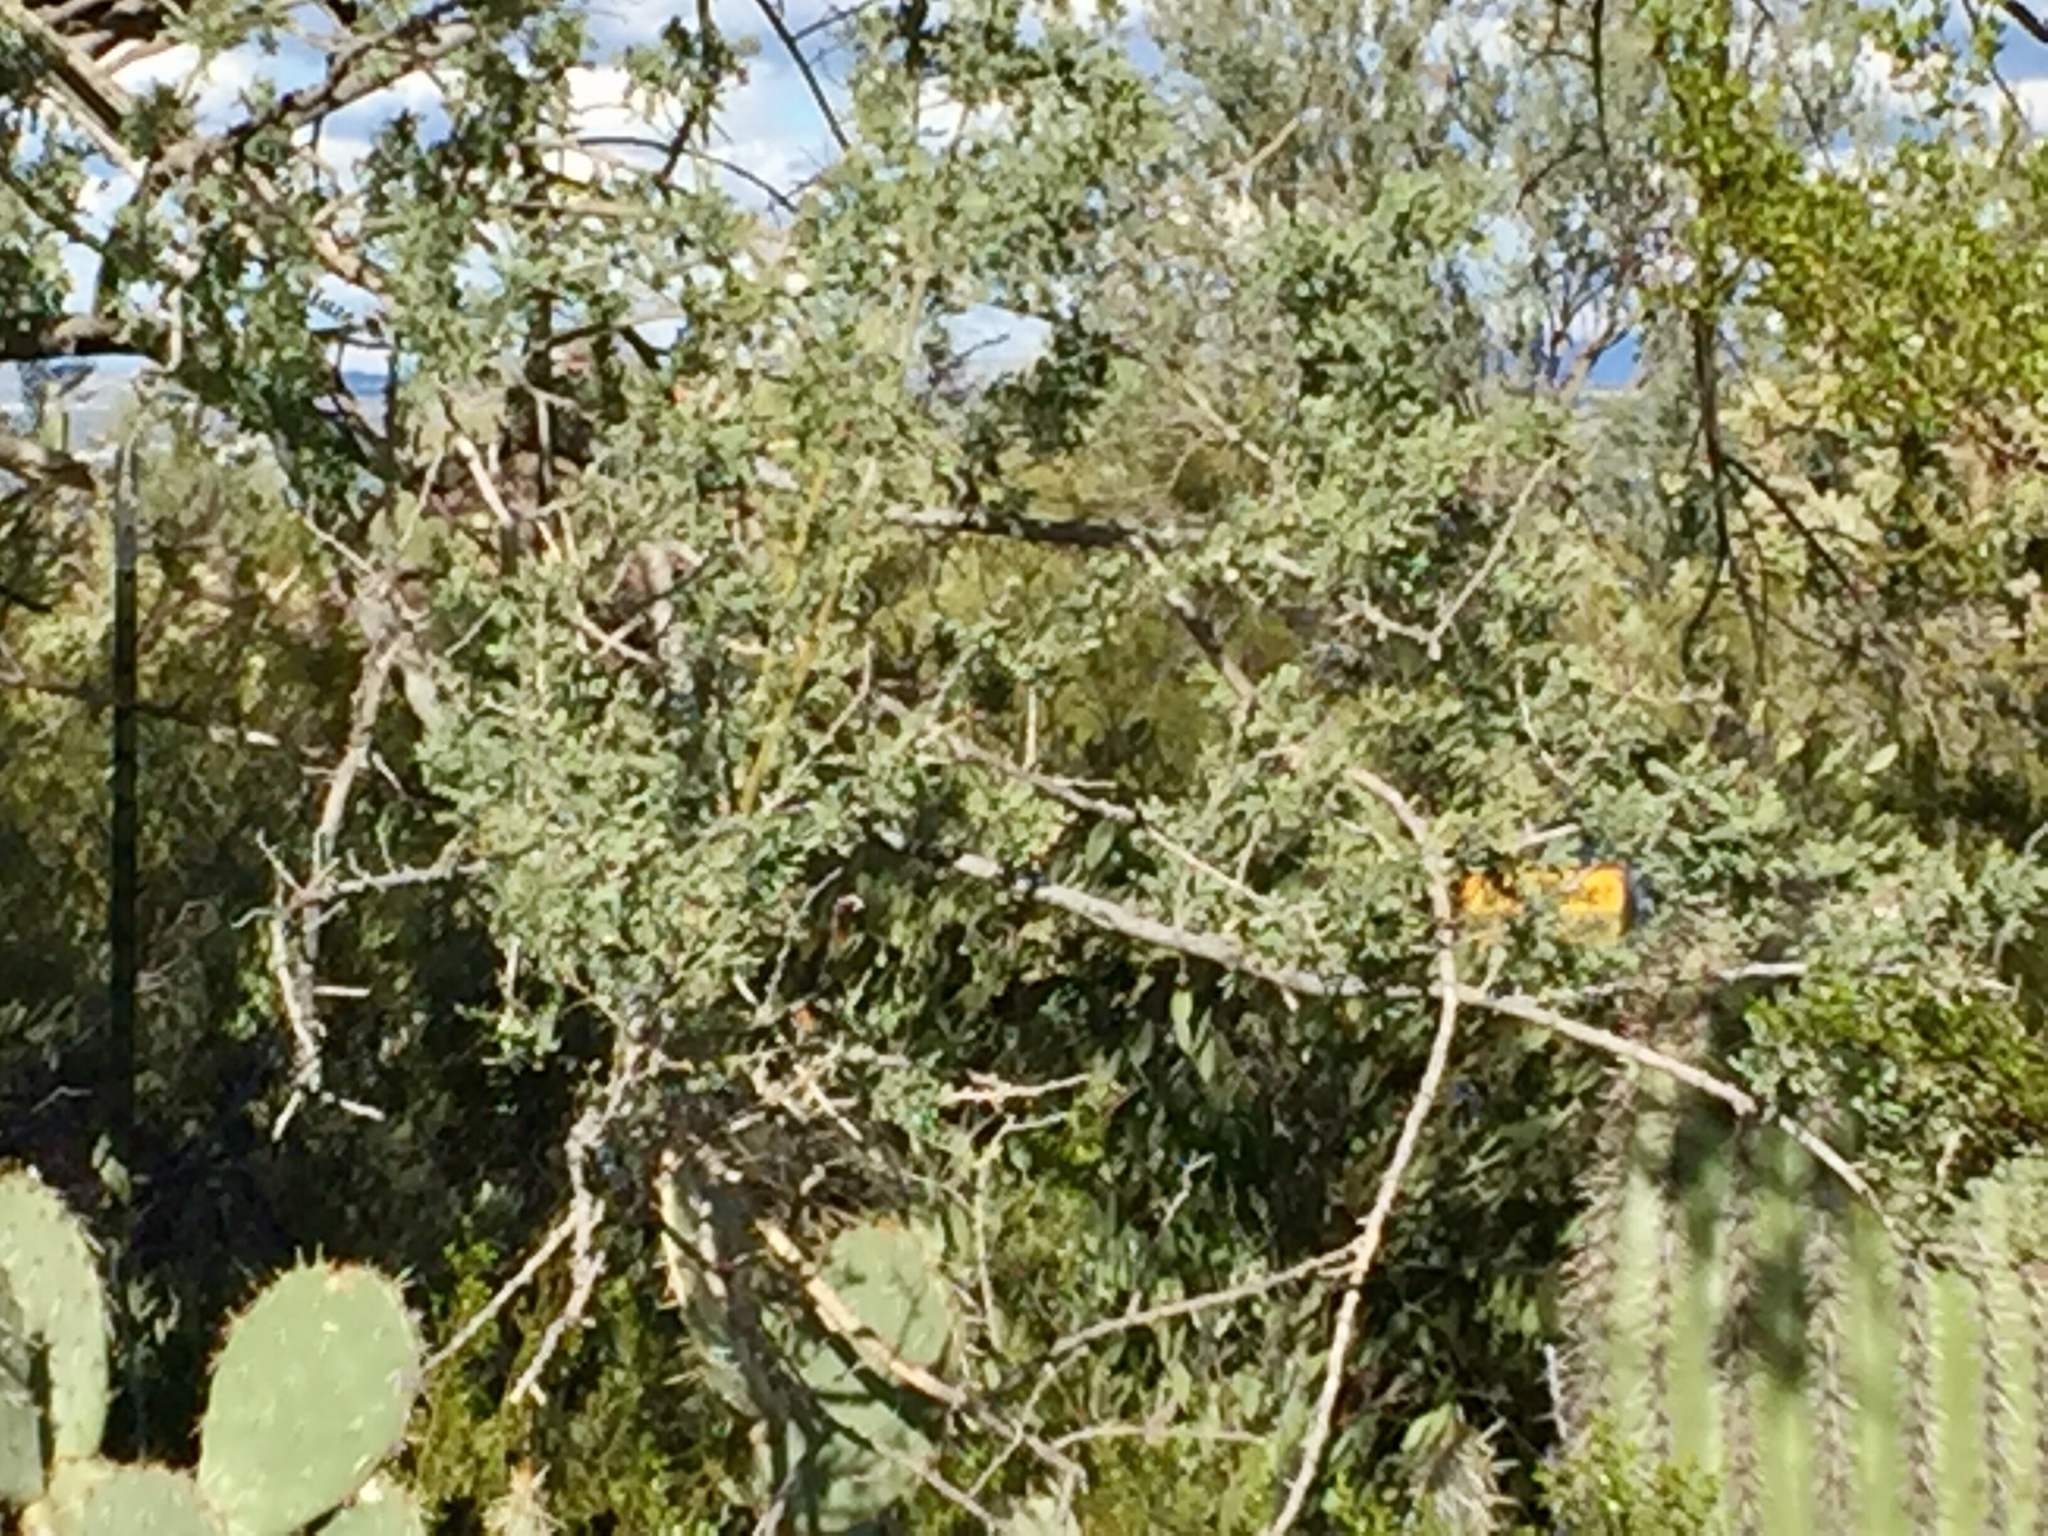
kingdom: Plantae
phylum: Tracheophyta
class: Magnoliopsida
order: Fabales
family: Fabaceae
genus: Olneya
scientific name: Olneya tesota
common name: Desert ironwood
